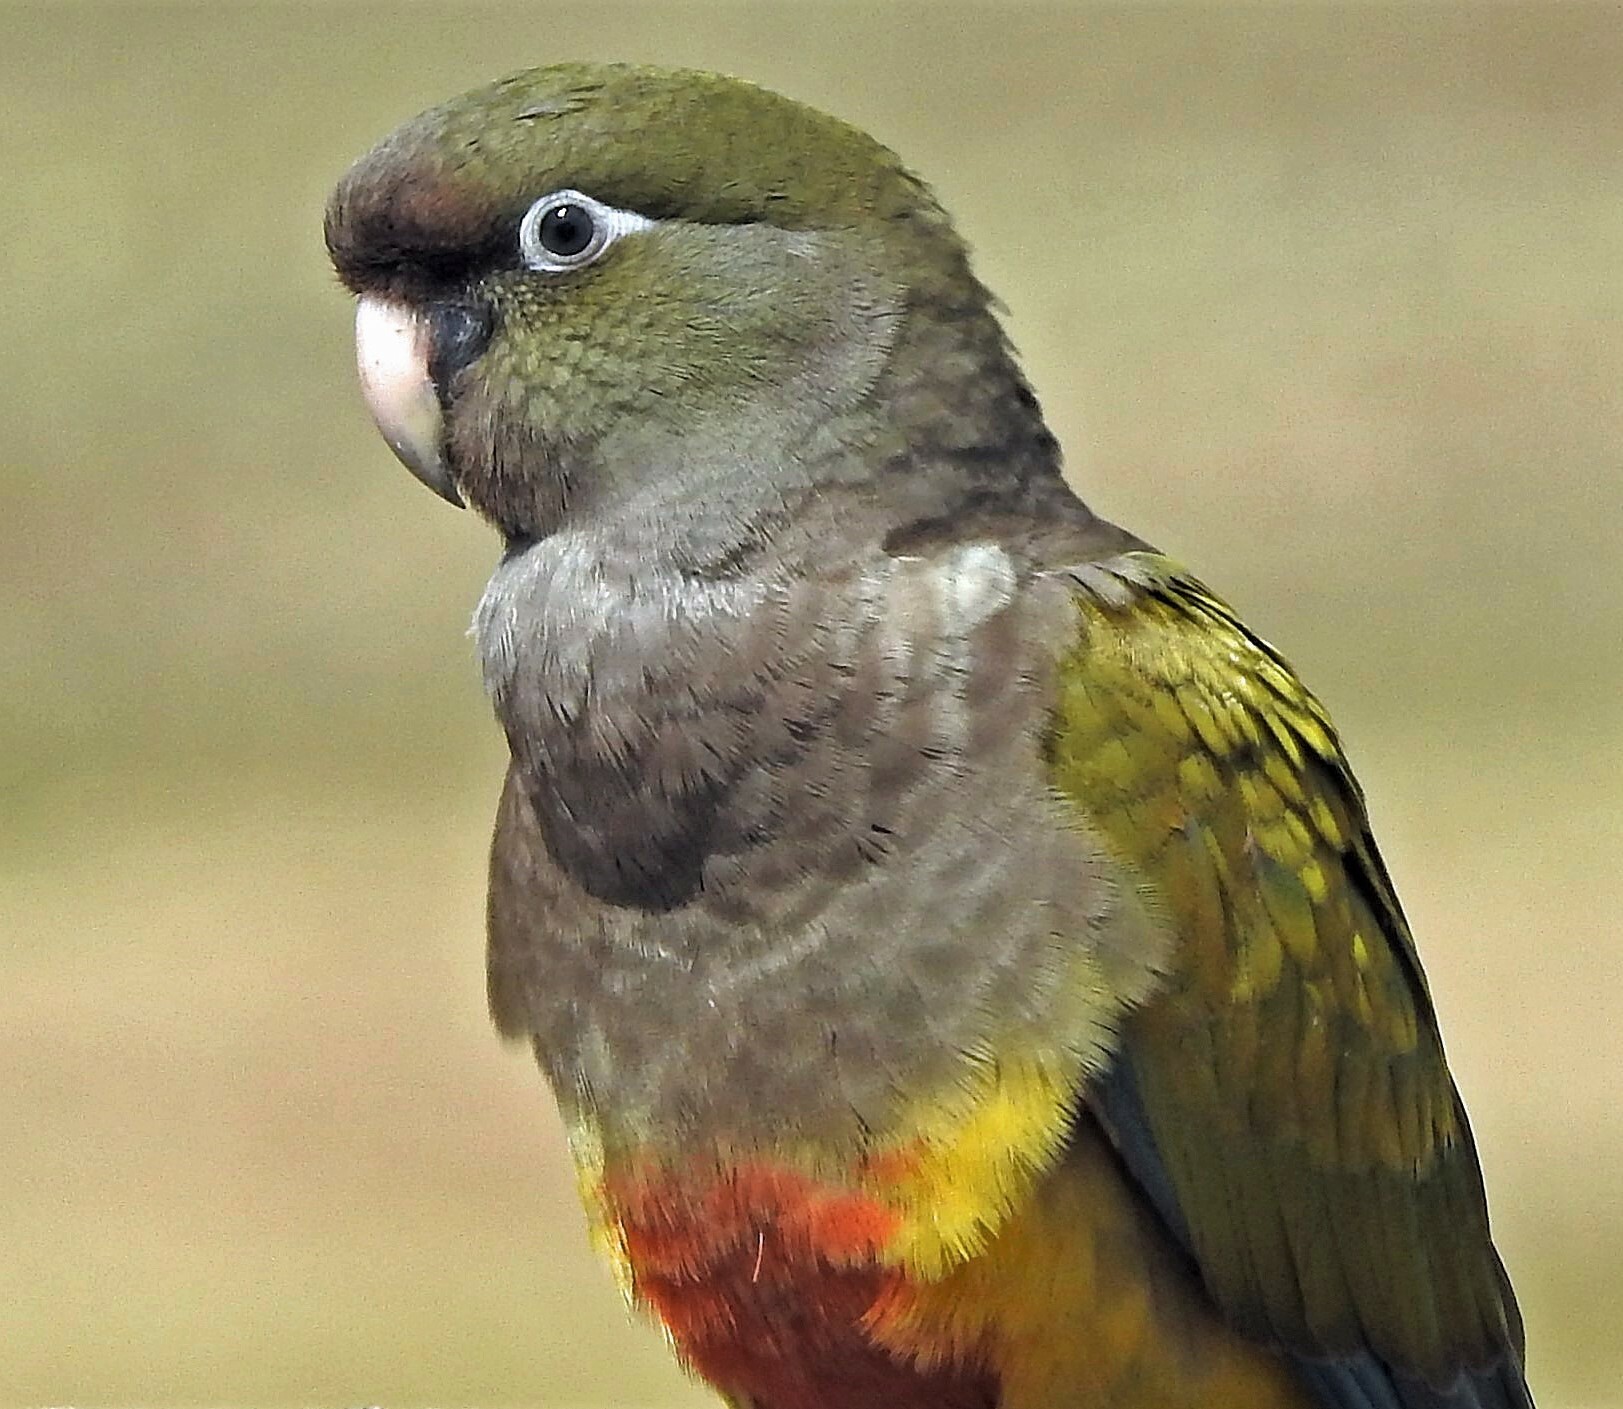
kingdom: Animalia
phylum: Chordata
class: Aves
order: Psittaciformes
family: Psittacidae
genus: Cyanoliseus
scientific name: Cyanoliseus patagonus
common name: Burrowing parrot
